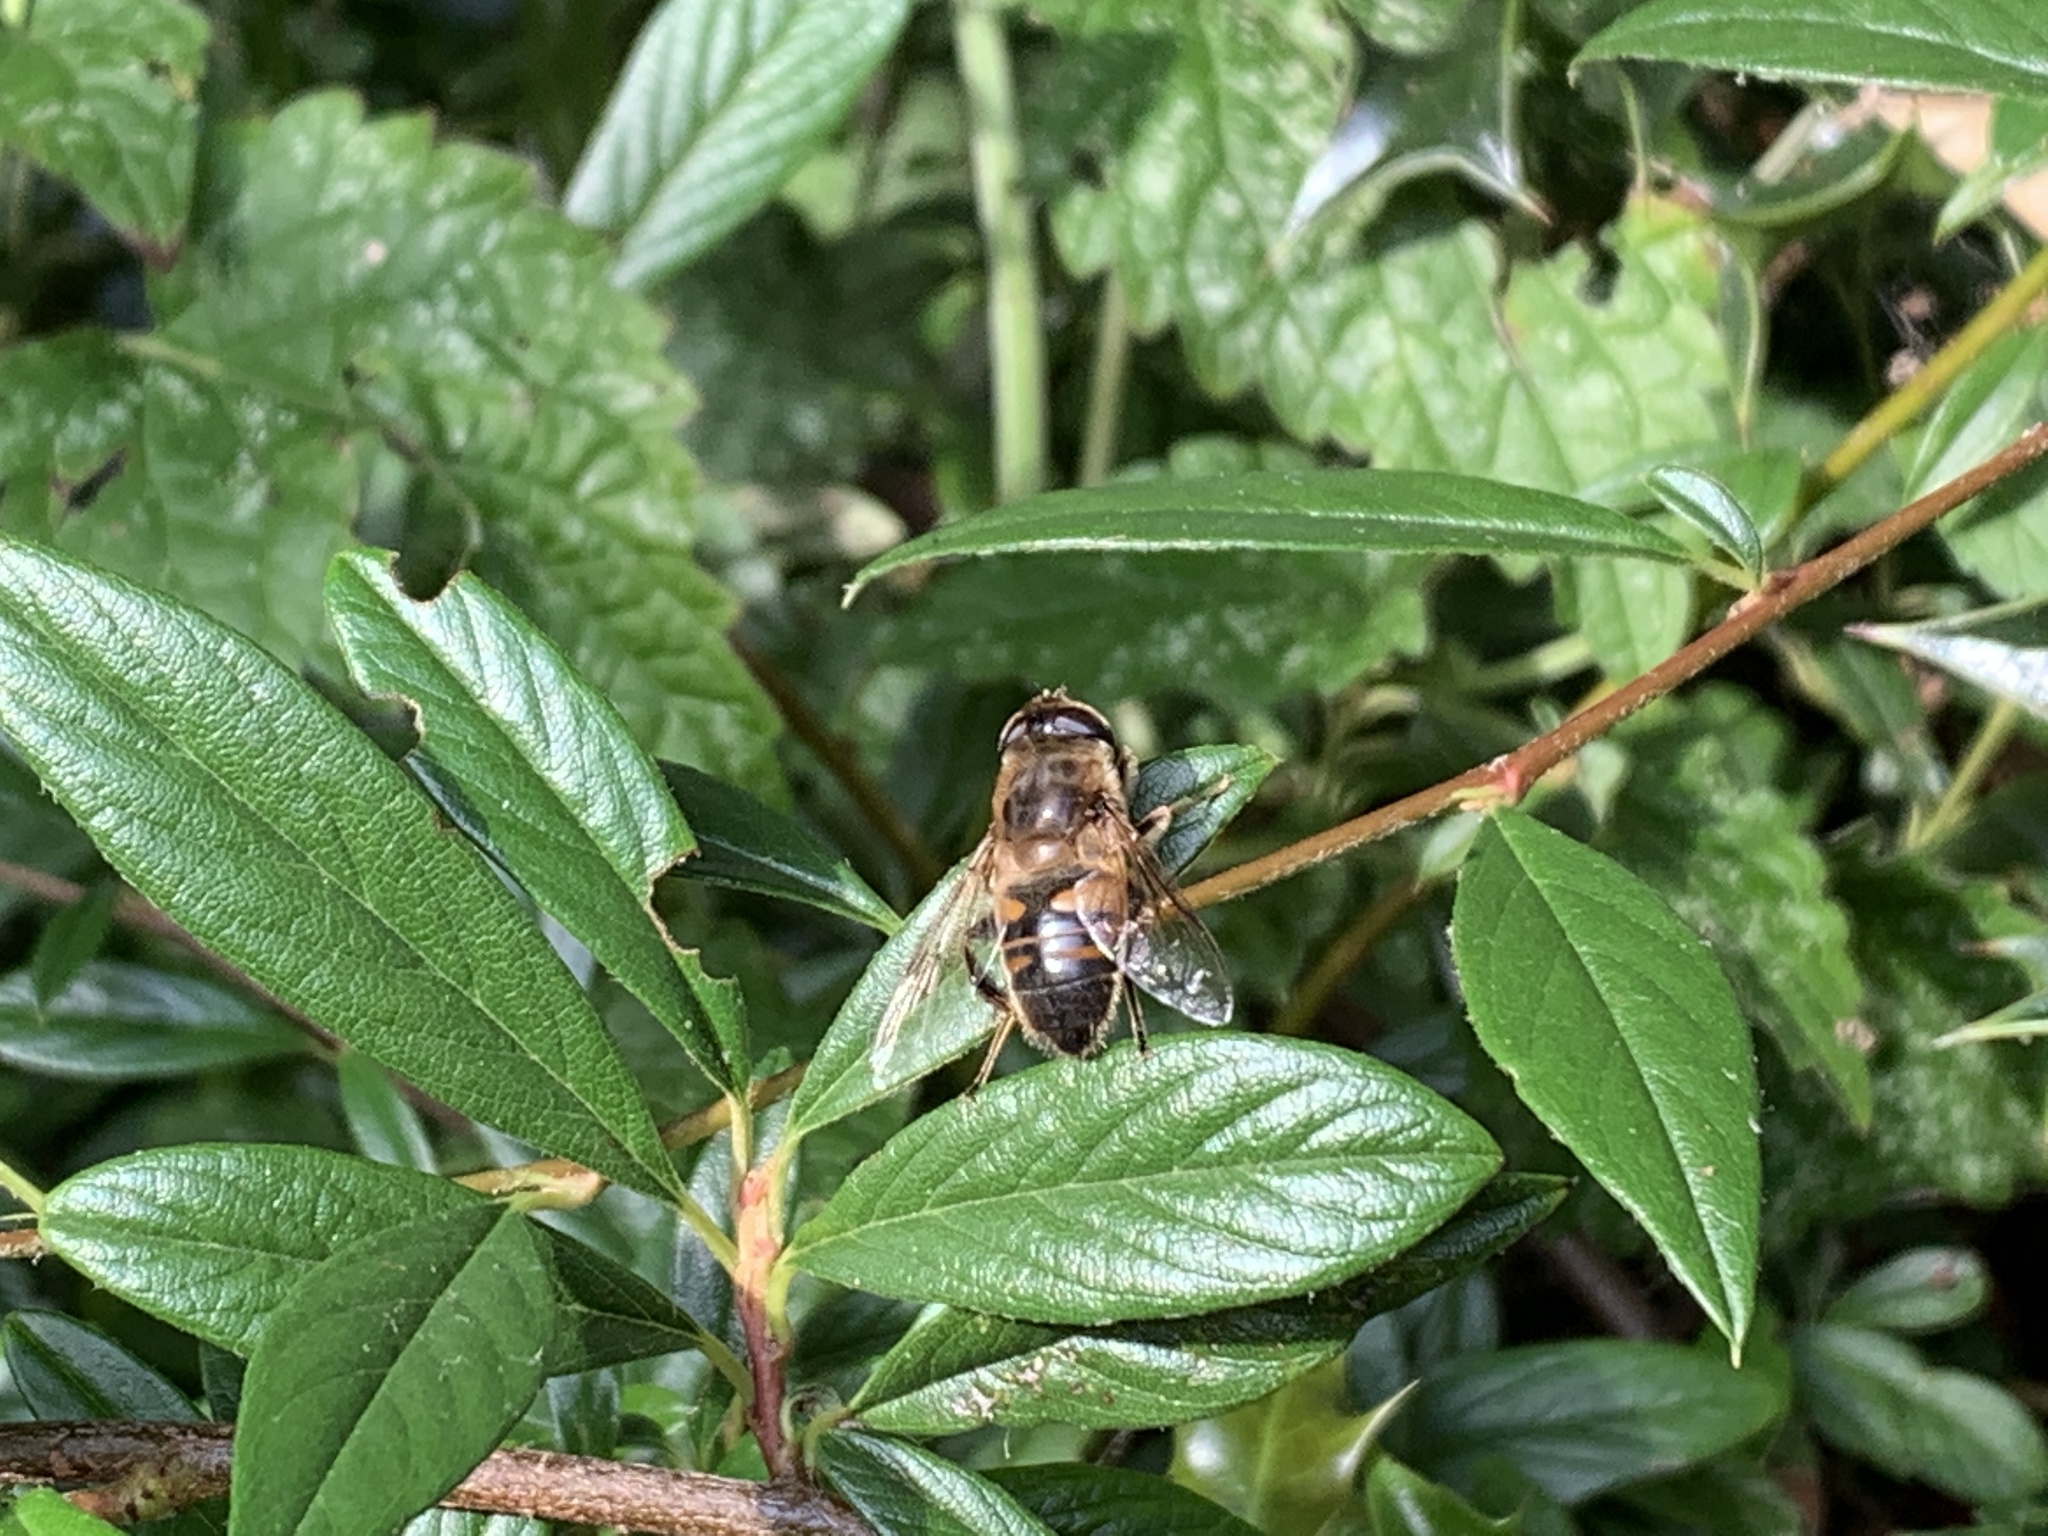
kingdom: Animalia
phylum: Arthropoda
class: Insecta
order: Diptera
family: Syrphidae
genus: Eristalis
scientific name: Eristalis tenax
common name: Drone fly
